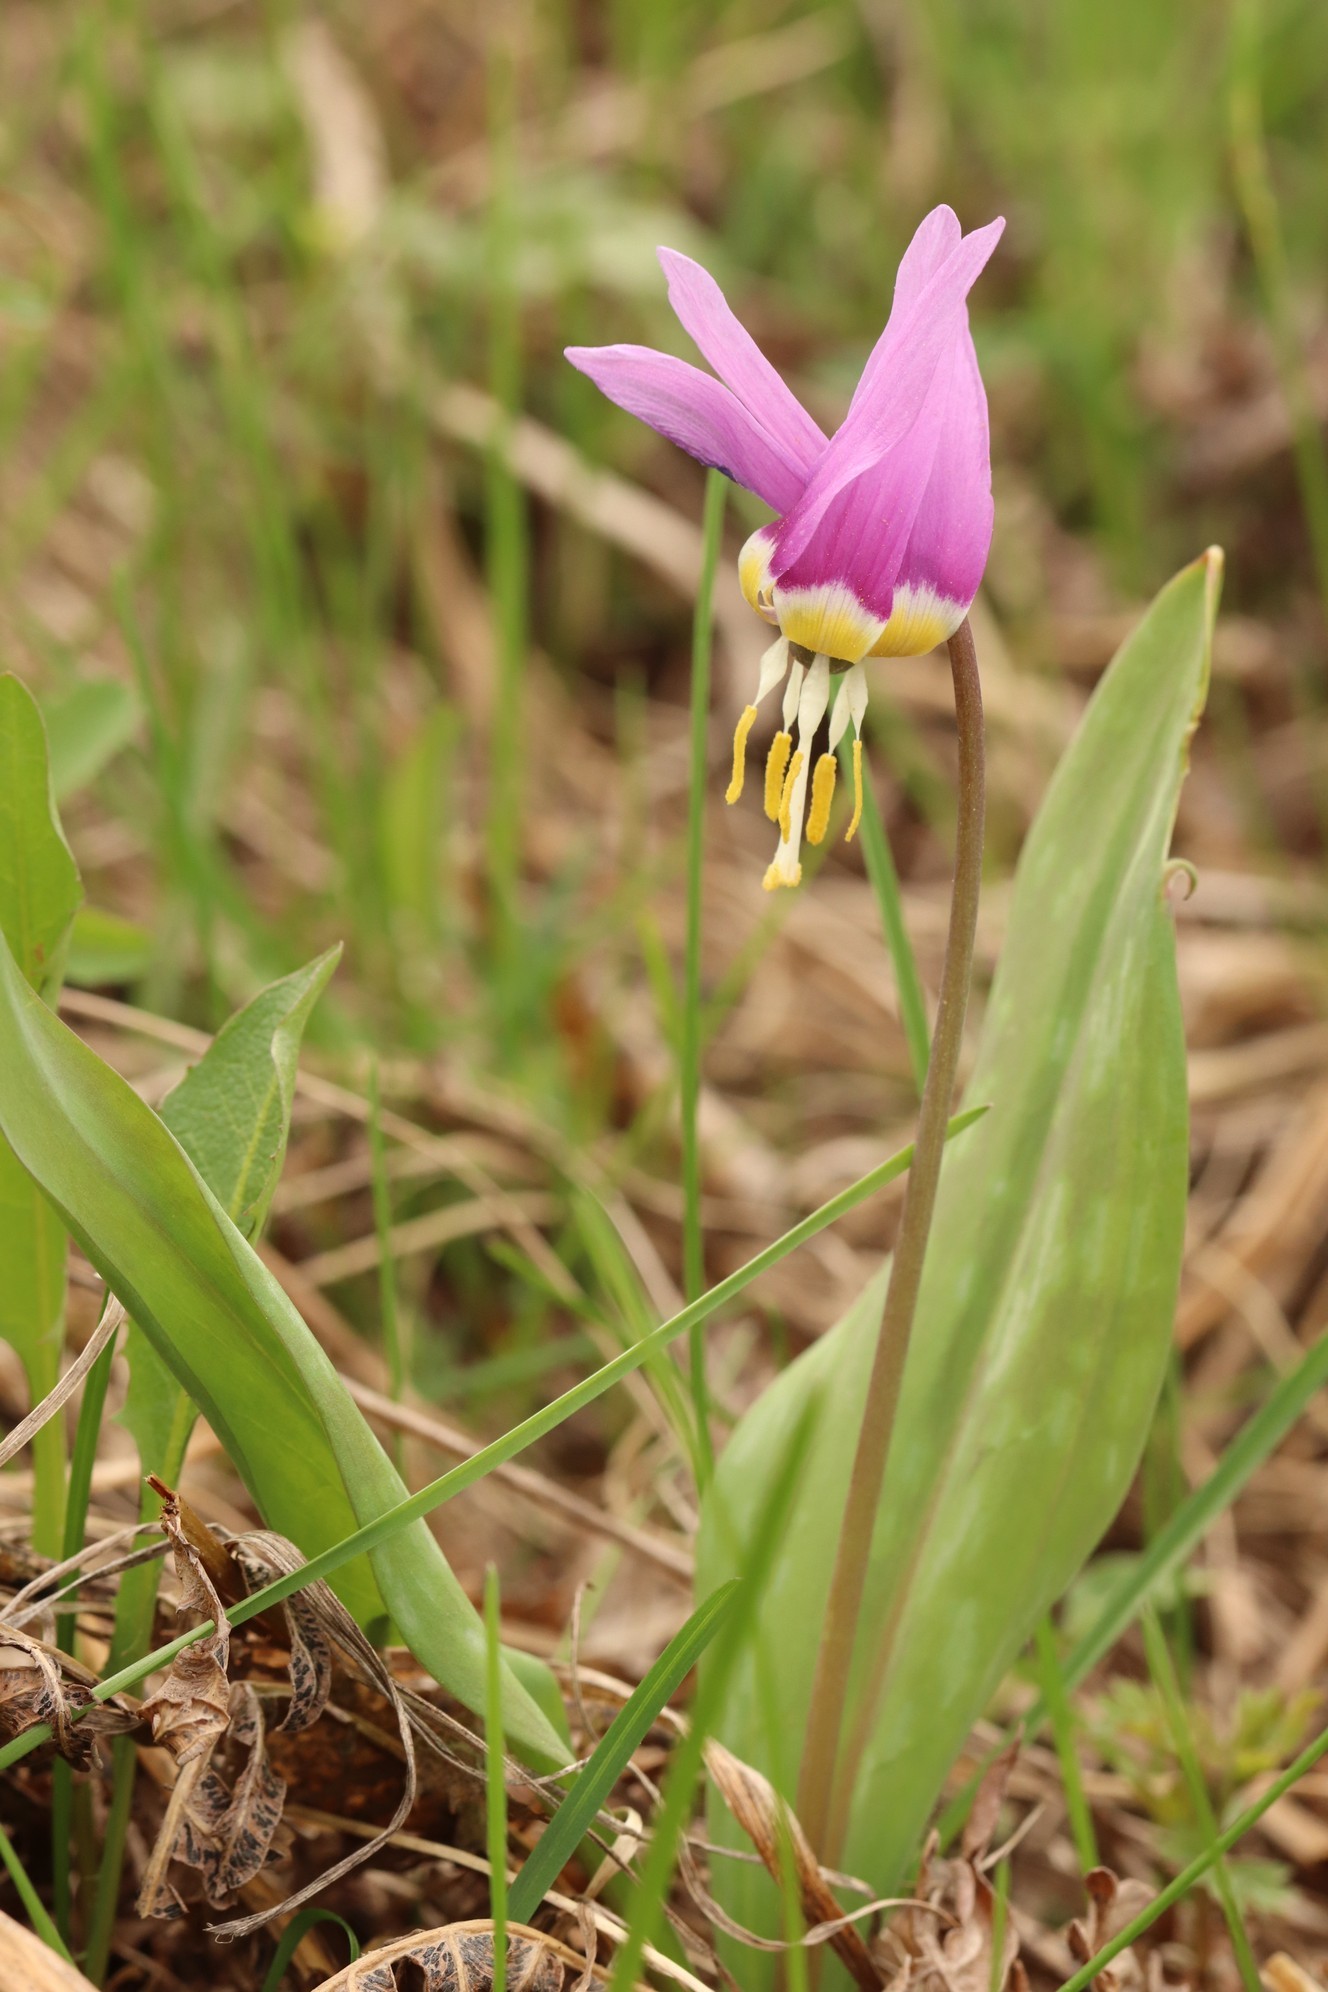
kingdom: Plantae
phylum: Tracheophyta
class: Liliopsida
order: Liliales
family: Liliaceae
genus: Erythronium
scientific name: Erythronium sibiricum
